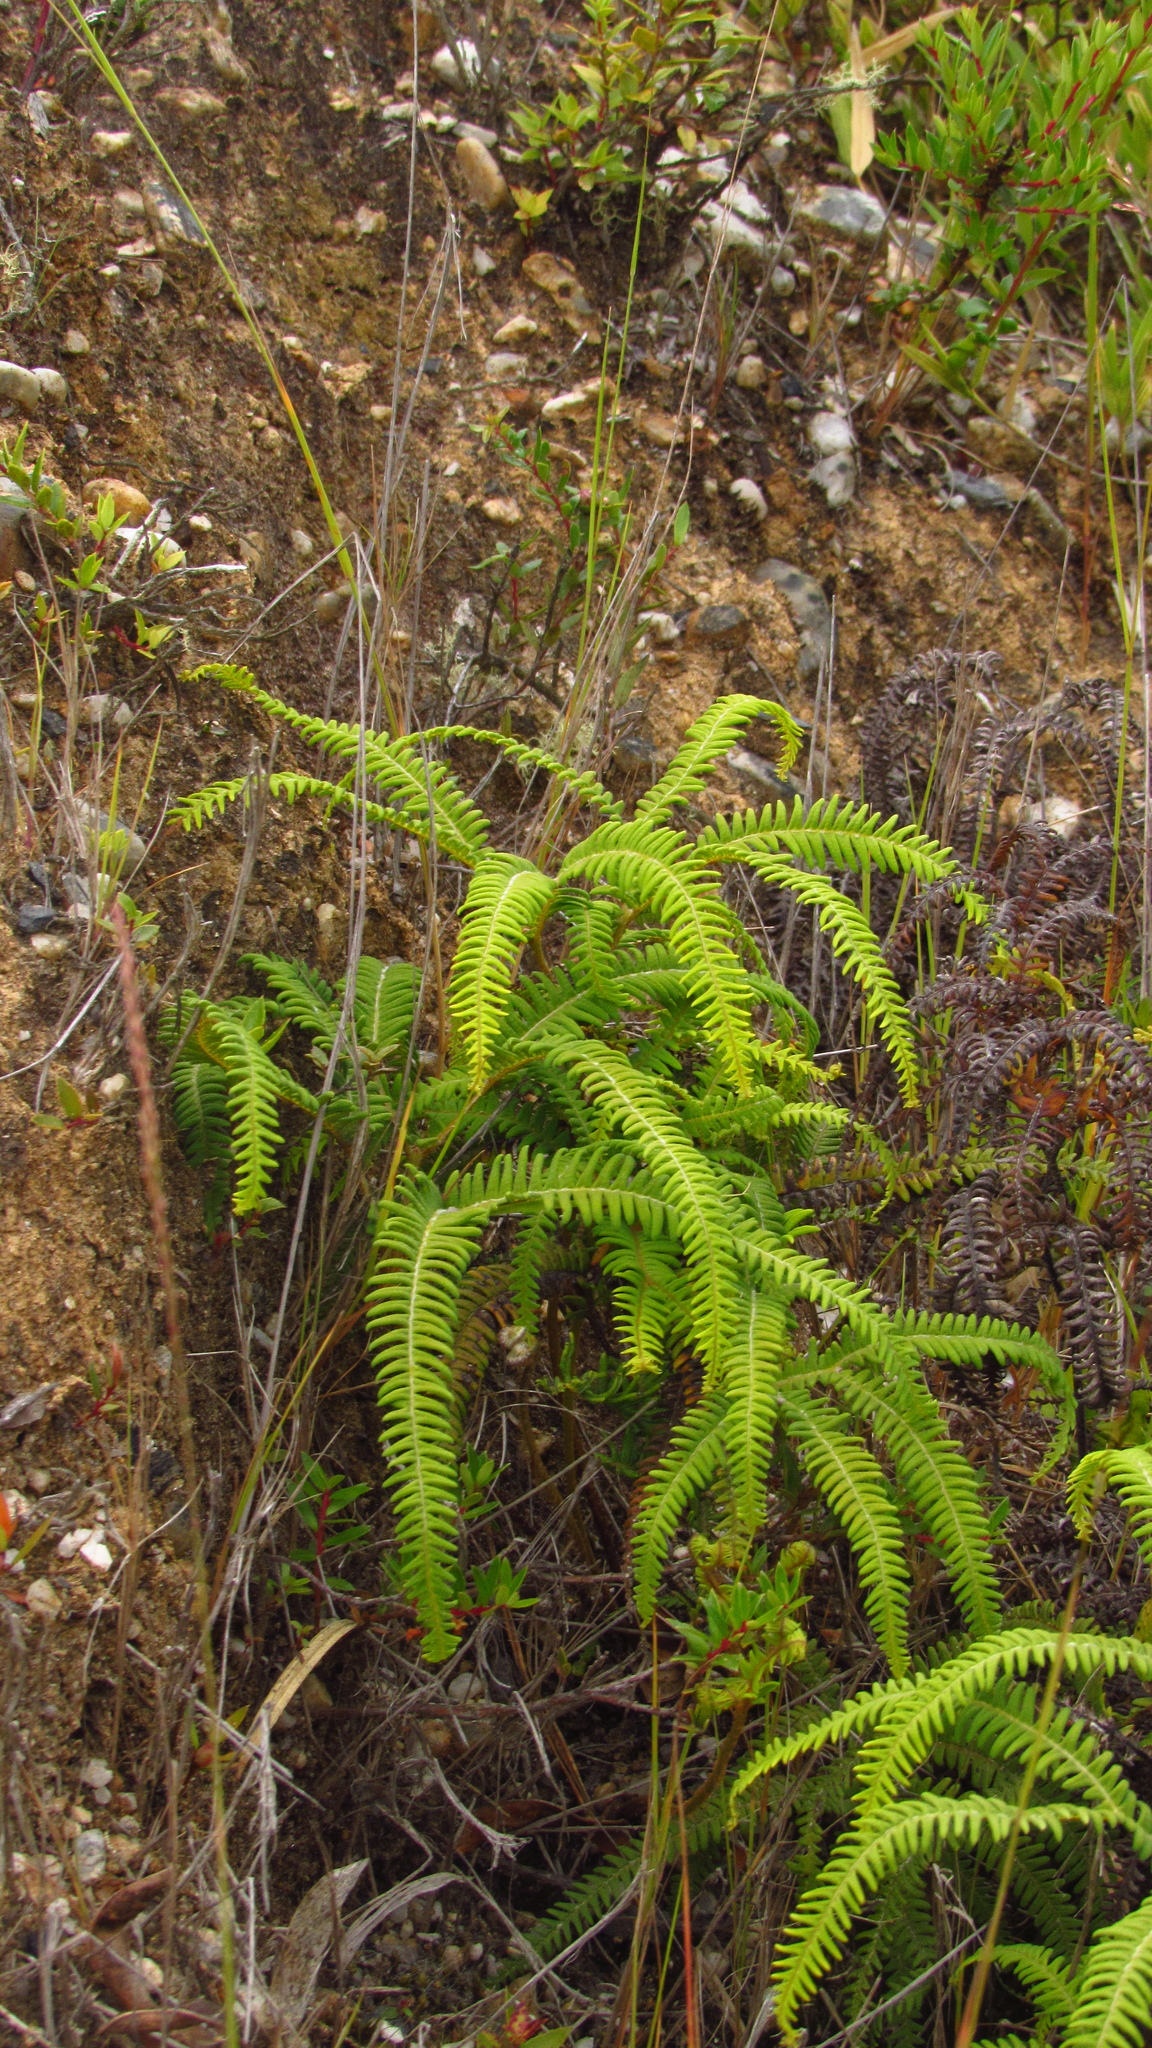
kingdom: Plantae
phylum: Tracheophyta
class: Polypodiopsida
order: Gleicheniales
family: Gleicheniaceae
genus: Sticherus
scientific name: Sticherus squamulosus
